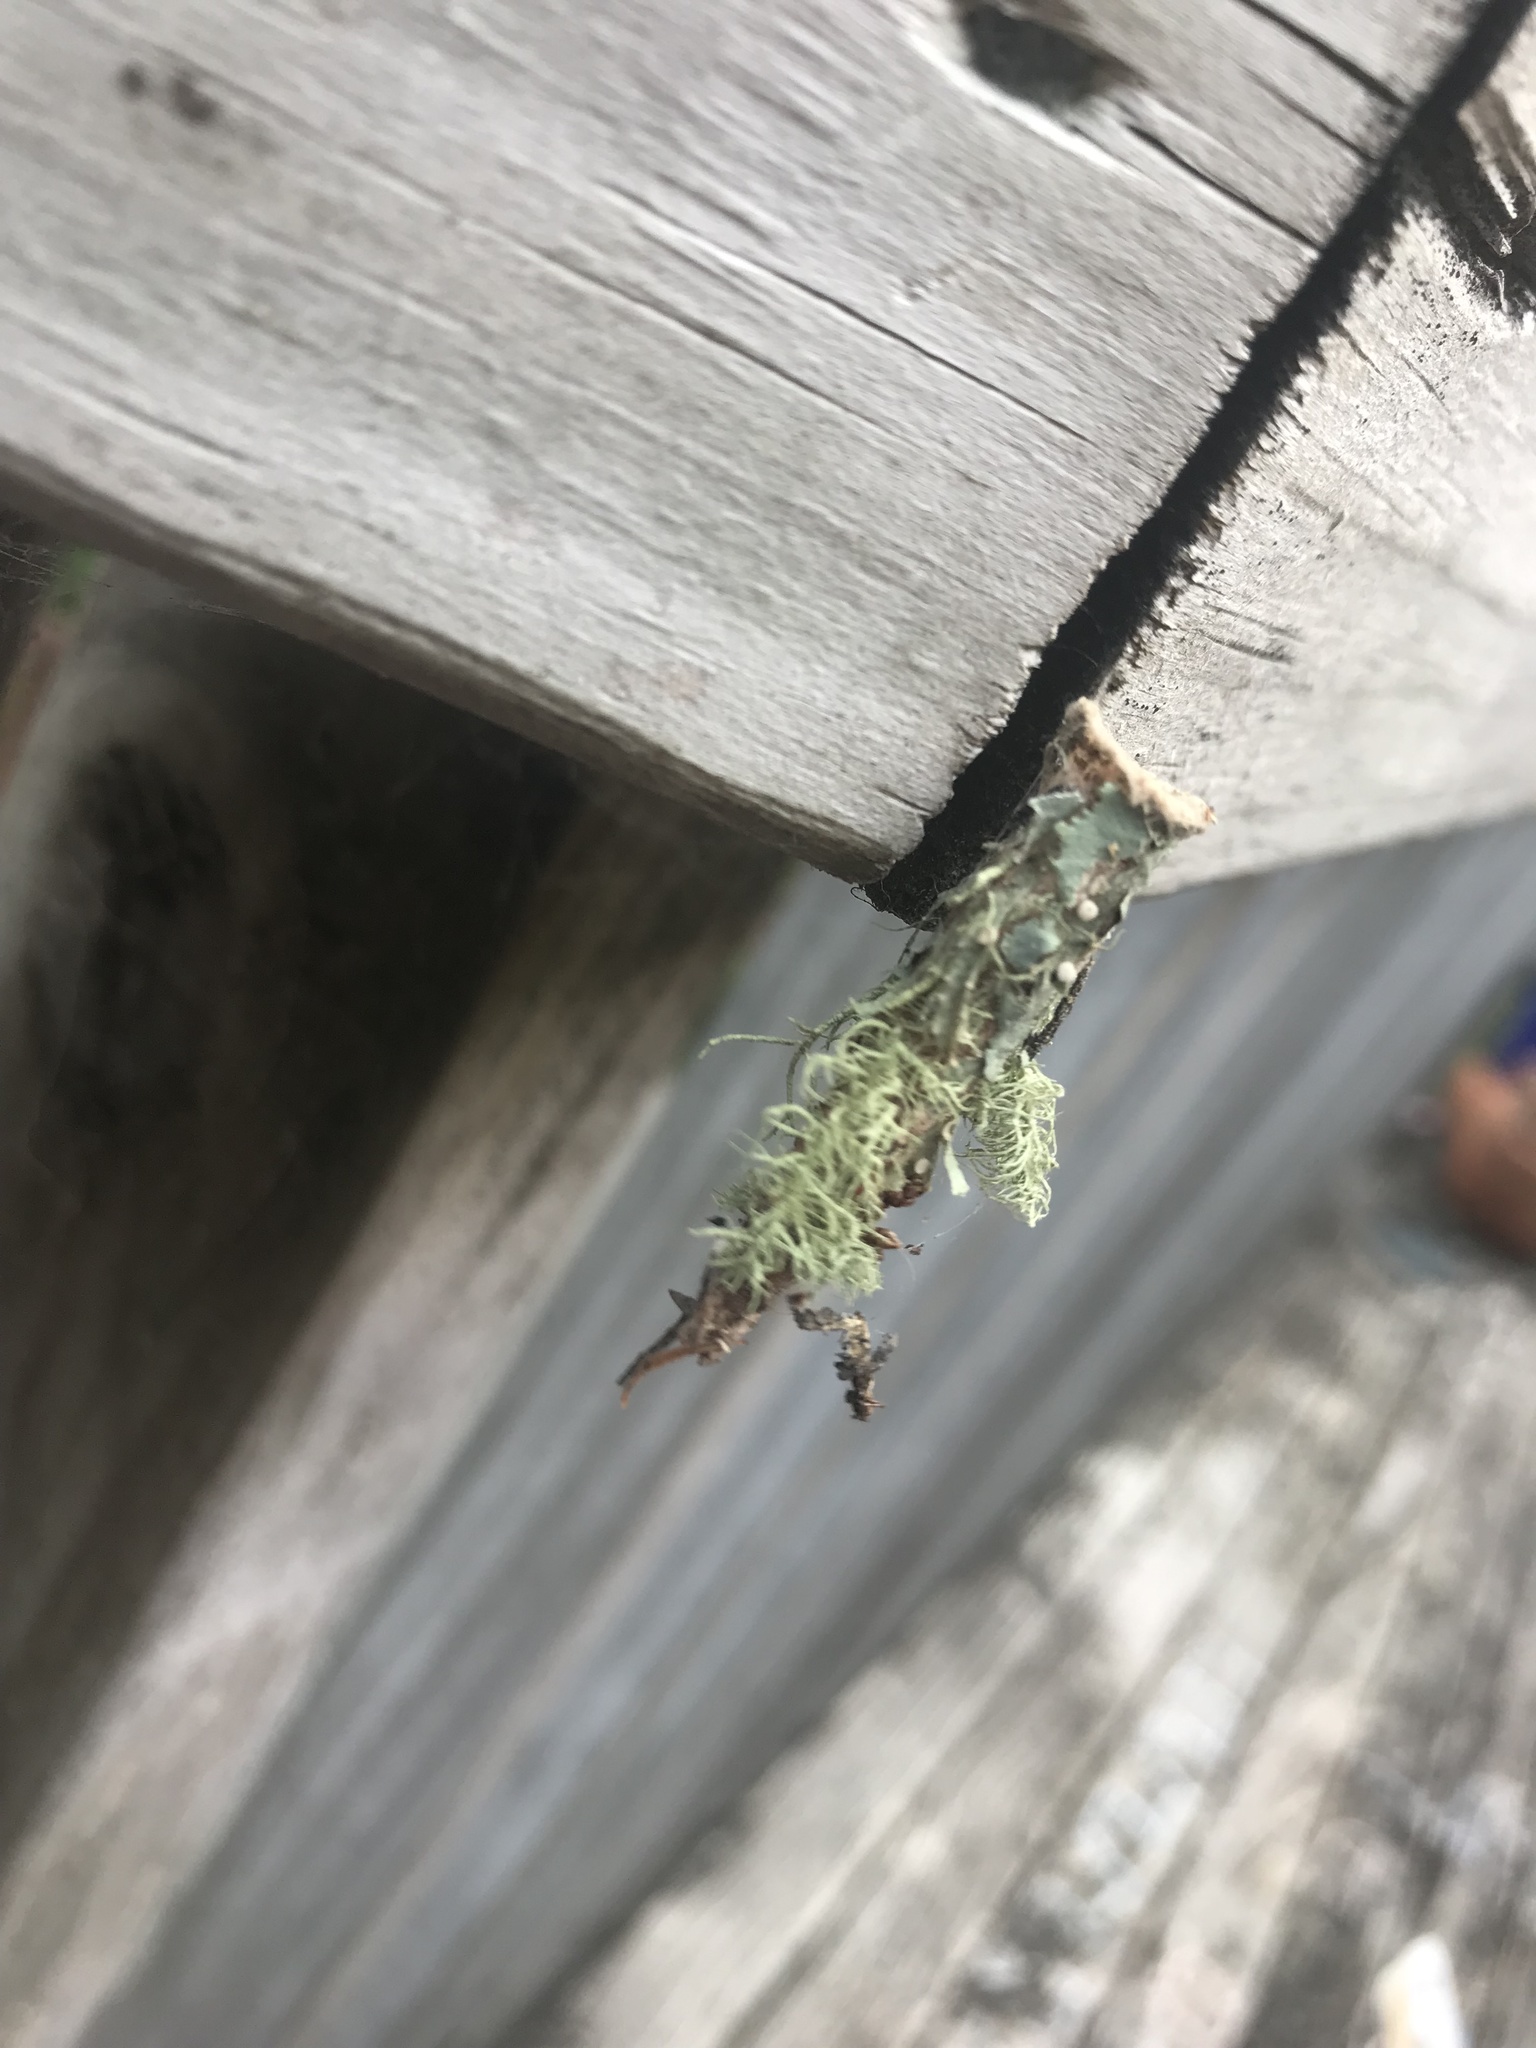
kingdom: Animalia
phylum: Arthropoda
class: Insecta
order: Lepidoptera
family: Psychidae
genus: Liothula
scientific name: Liothula omnivora
